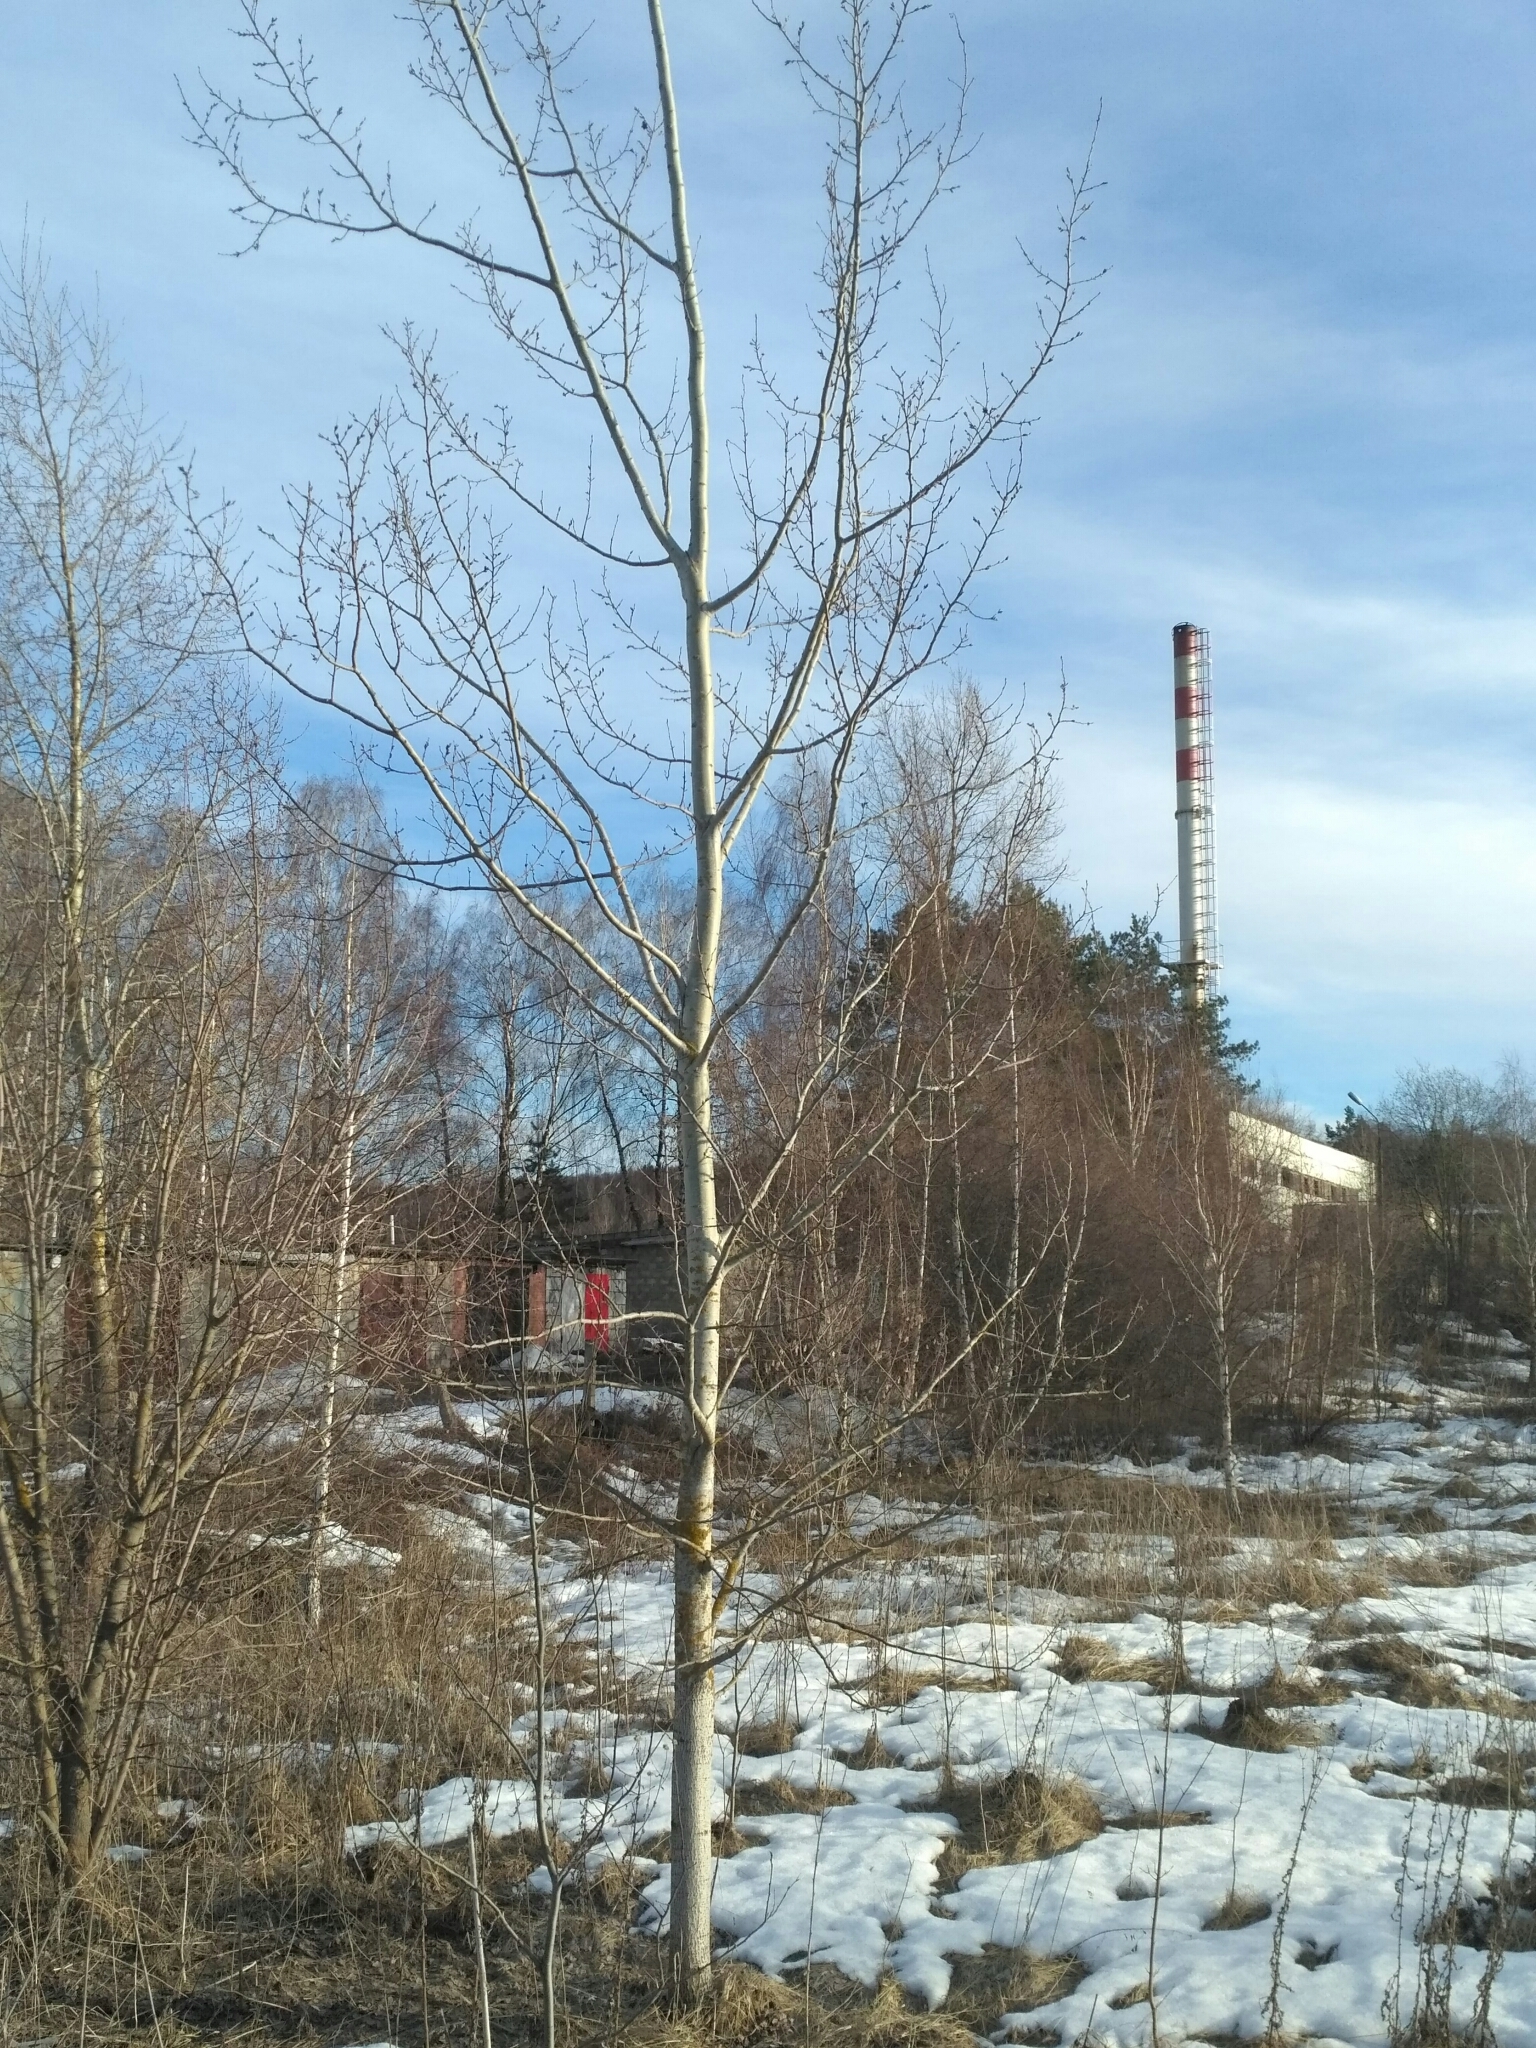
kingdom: Plantae
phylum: Tracheophyta
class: Magnoliopsida
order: Malpighiales
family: Salicaceae
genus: Populus
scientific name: Populus tremula
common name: European aspen
